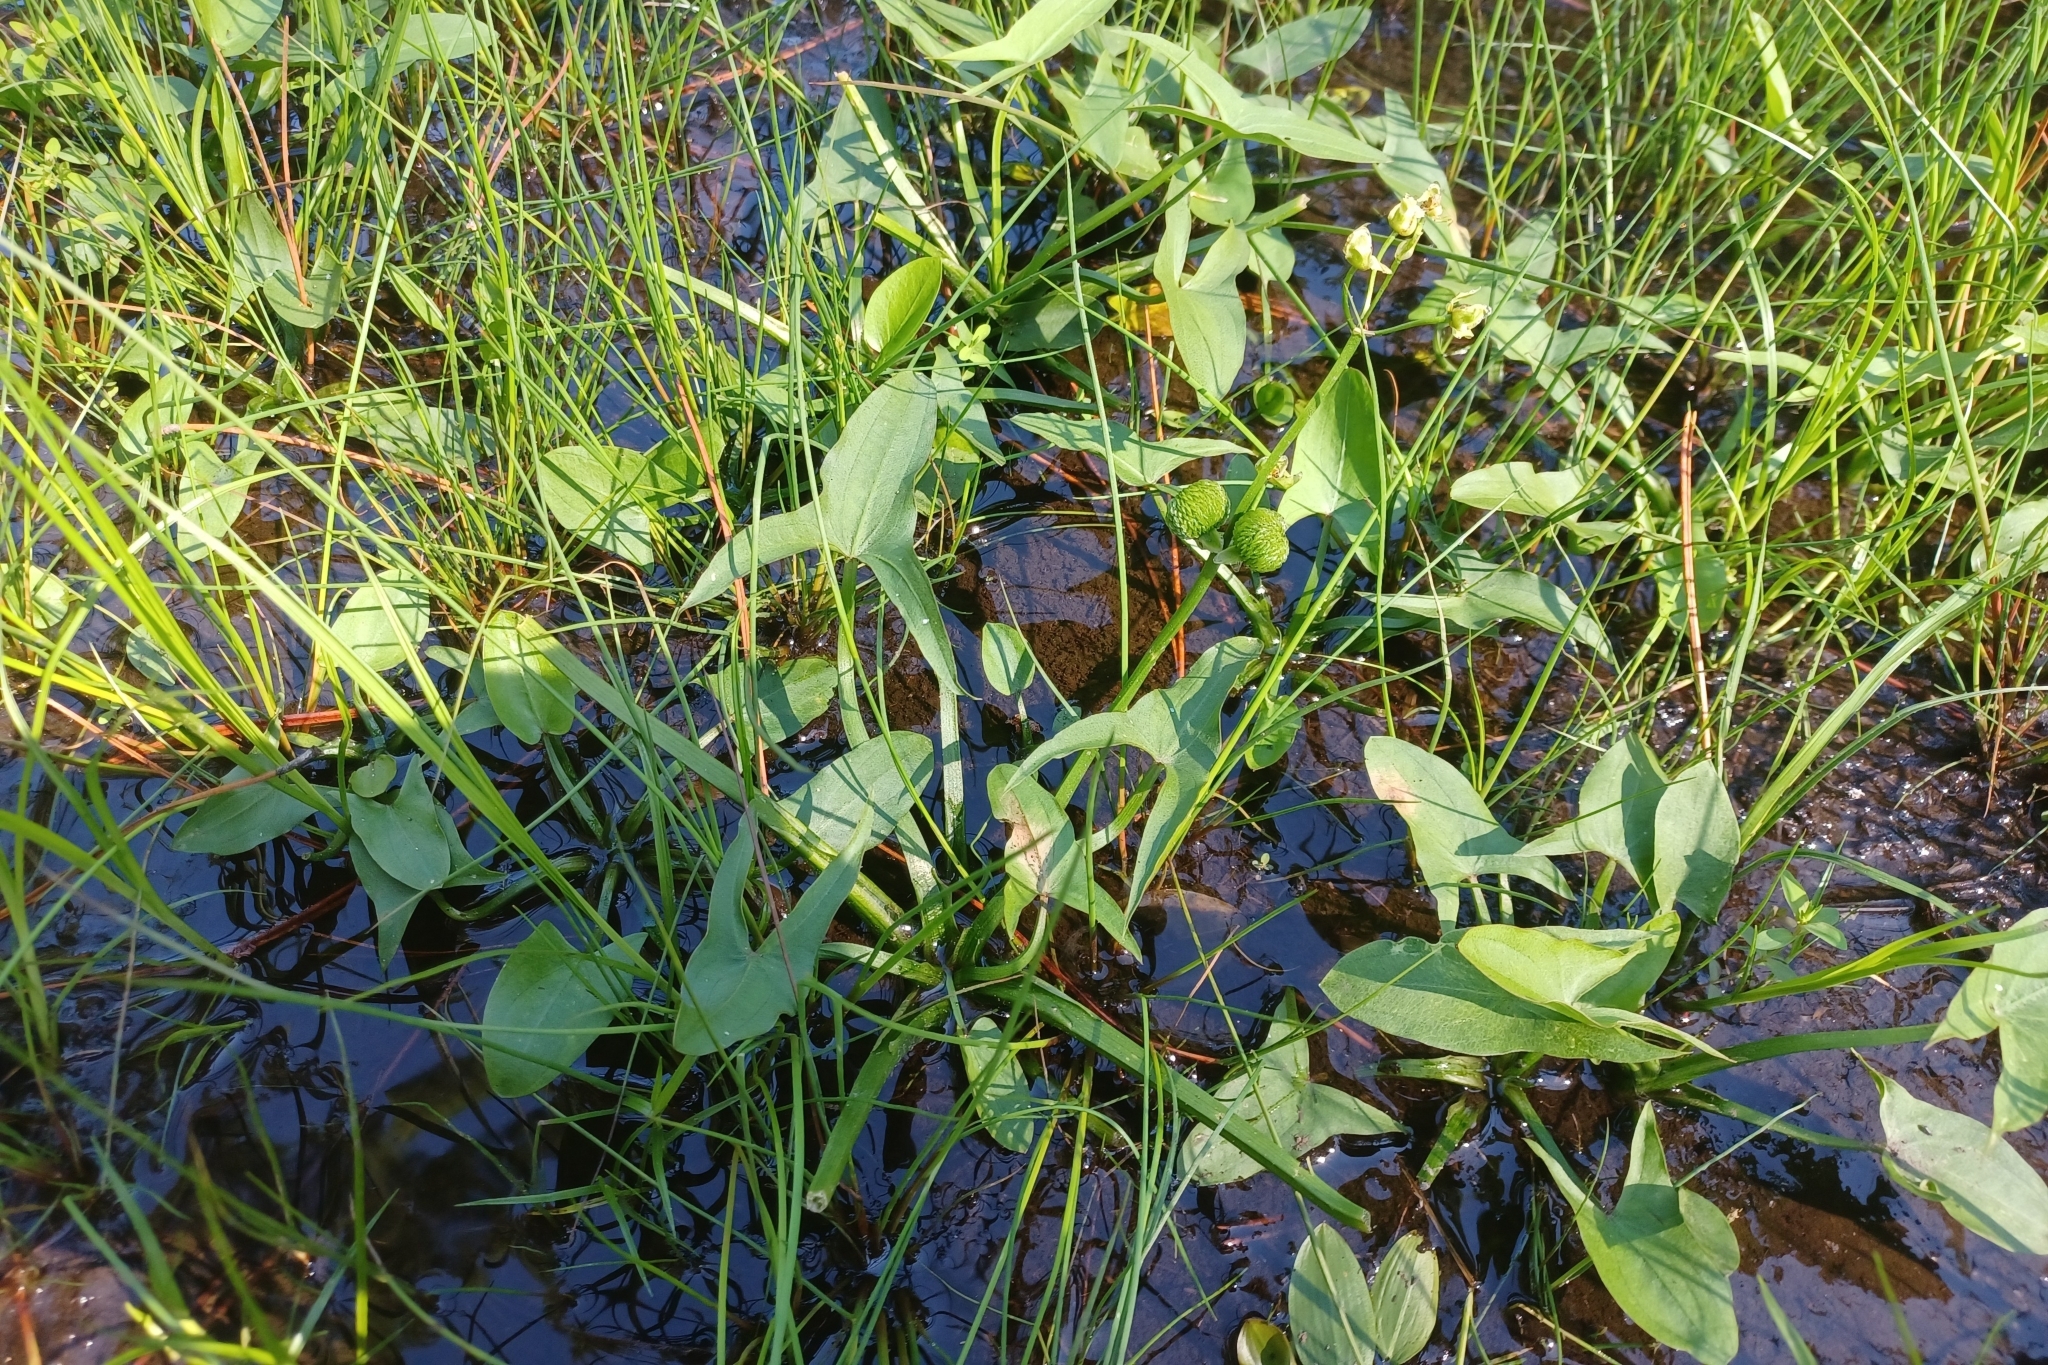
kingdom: Plantae
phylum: Tracheophyta
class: Liliopsida
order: Alismatales
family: Alismataceae
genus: Sagittaria
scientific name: Sagittaria latifolia
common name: Duck-potato
